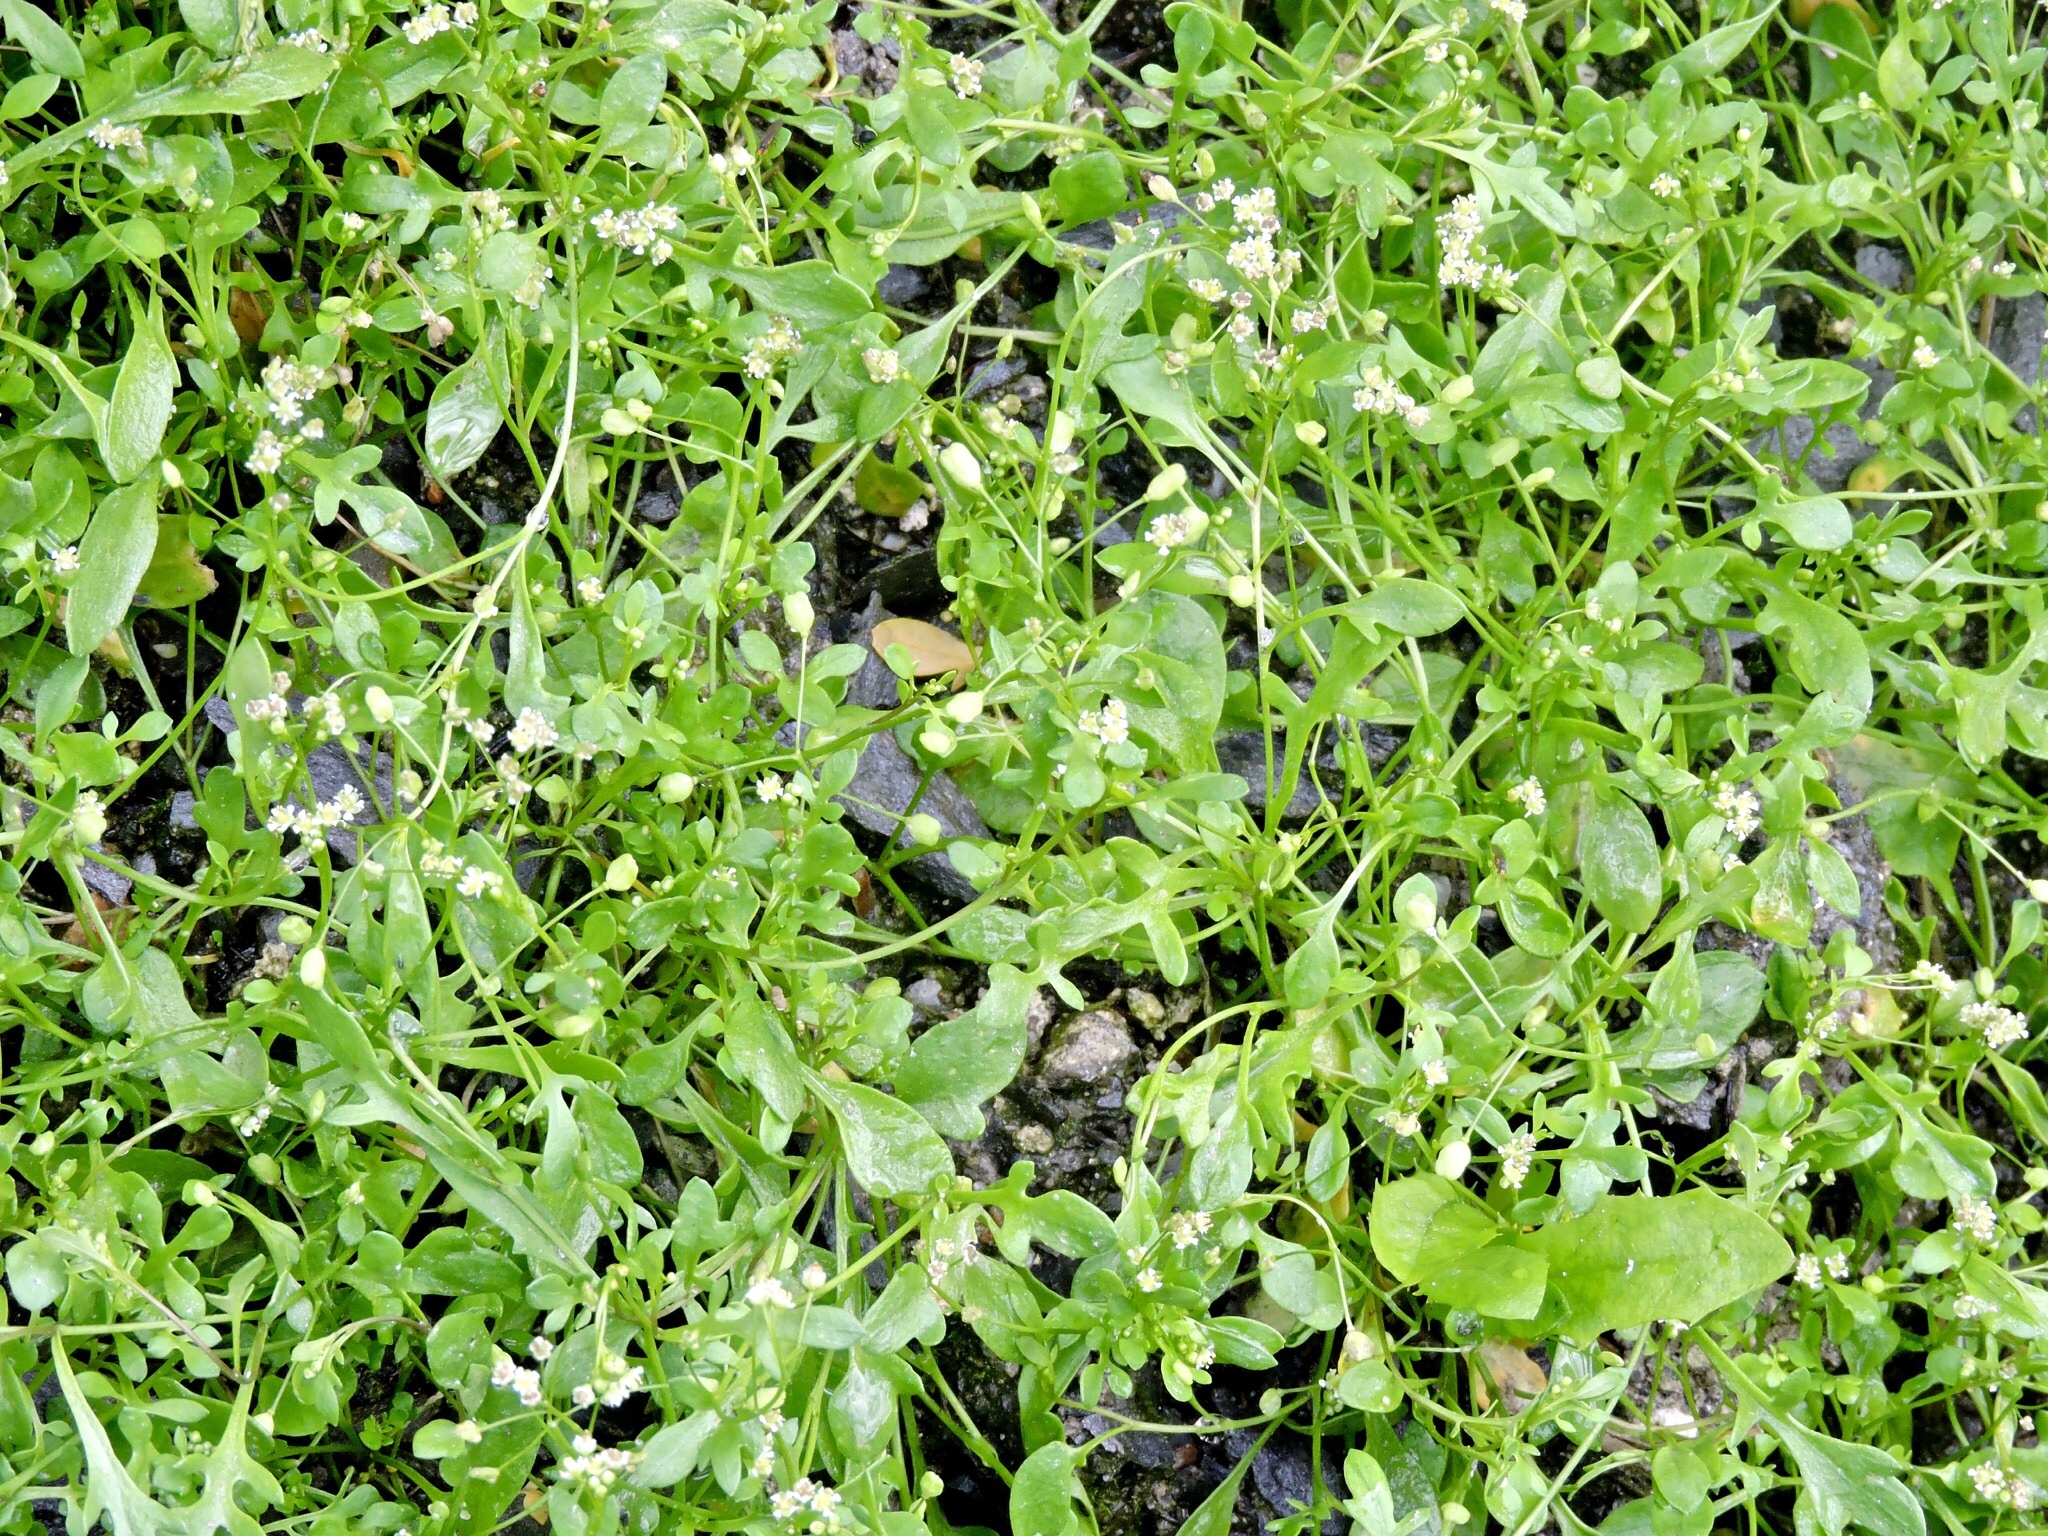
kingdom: Plantae
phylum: Tracheophyta
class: Magnoliopsida
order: Brassicales
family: Brassicaceae
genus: Hornungia
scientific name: Hornungia procumbens
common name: Oval purse
